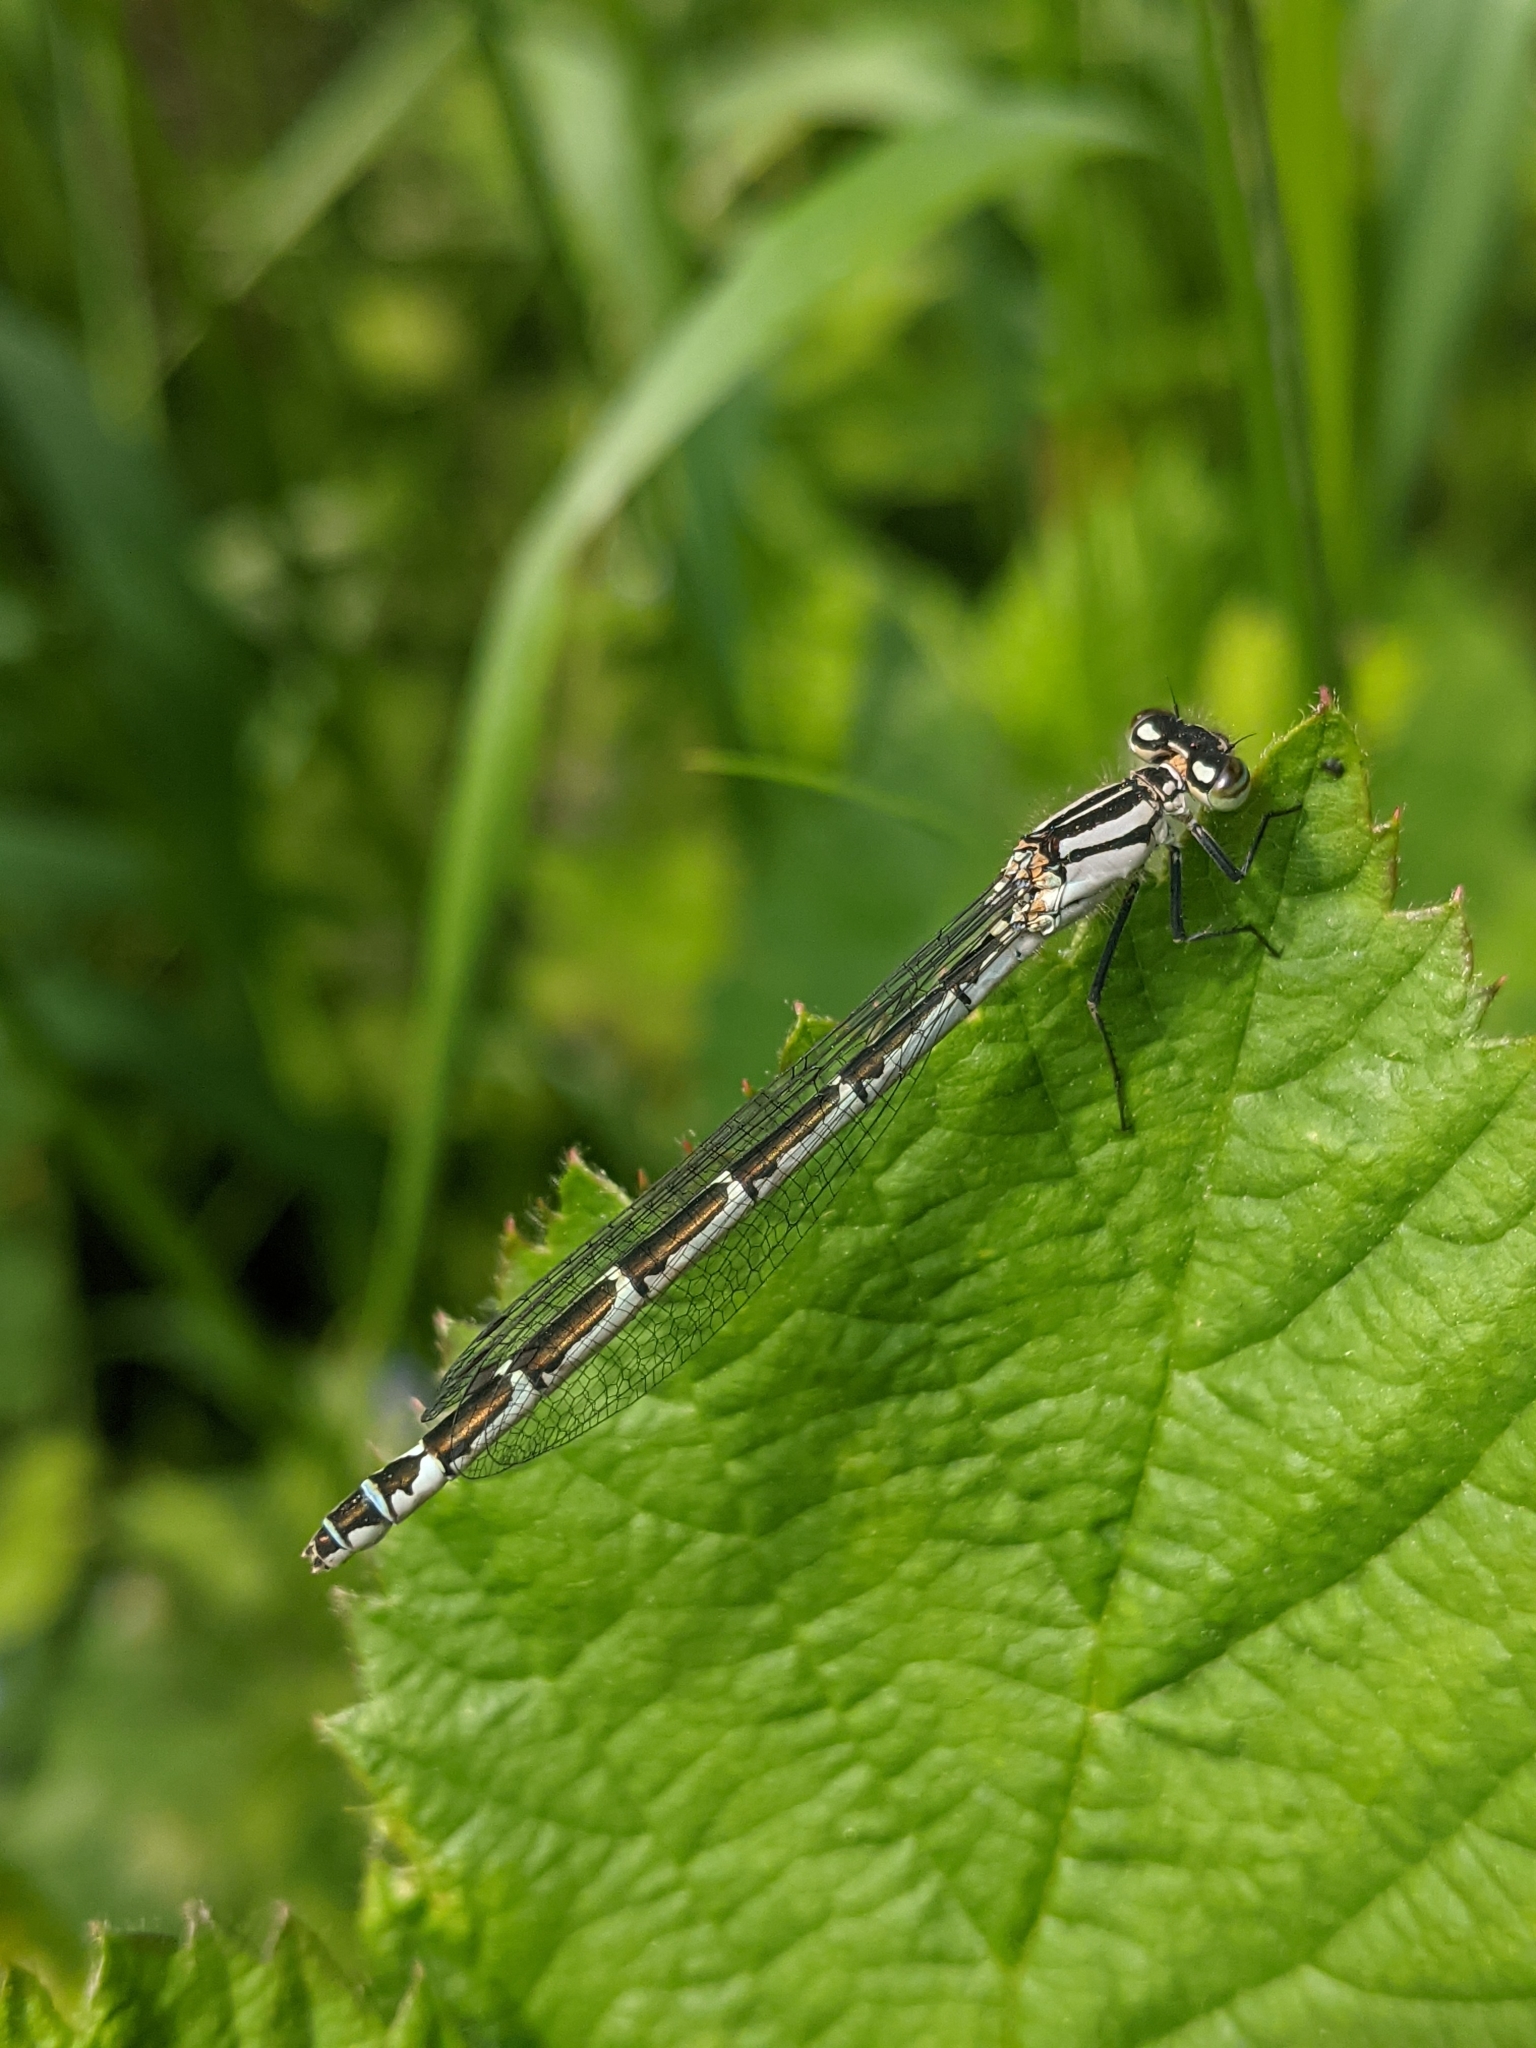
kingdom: Animalia
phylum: Arthropoda
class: Insecta
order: Odonata
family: Coenagrionidae
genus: Enallagma
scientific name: Enallagma cyathigerum
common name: Common blue damselfly
